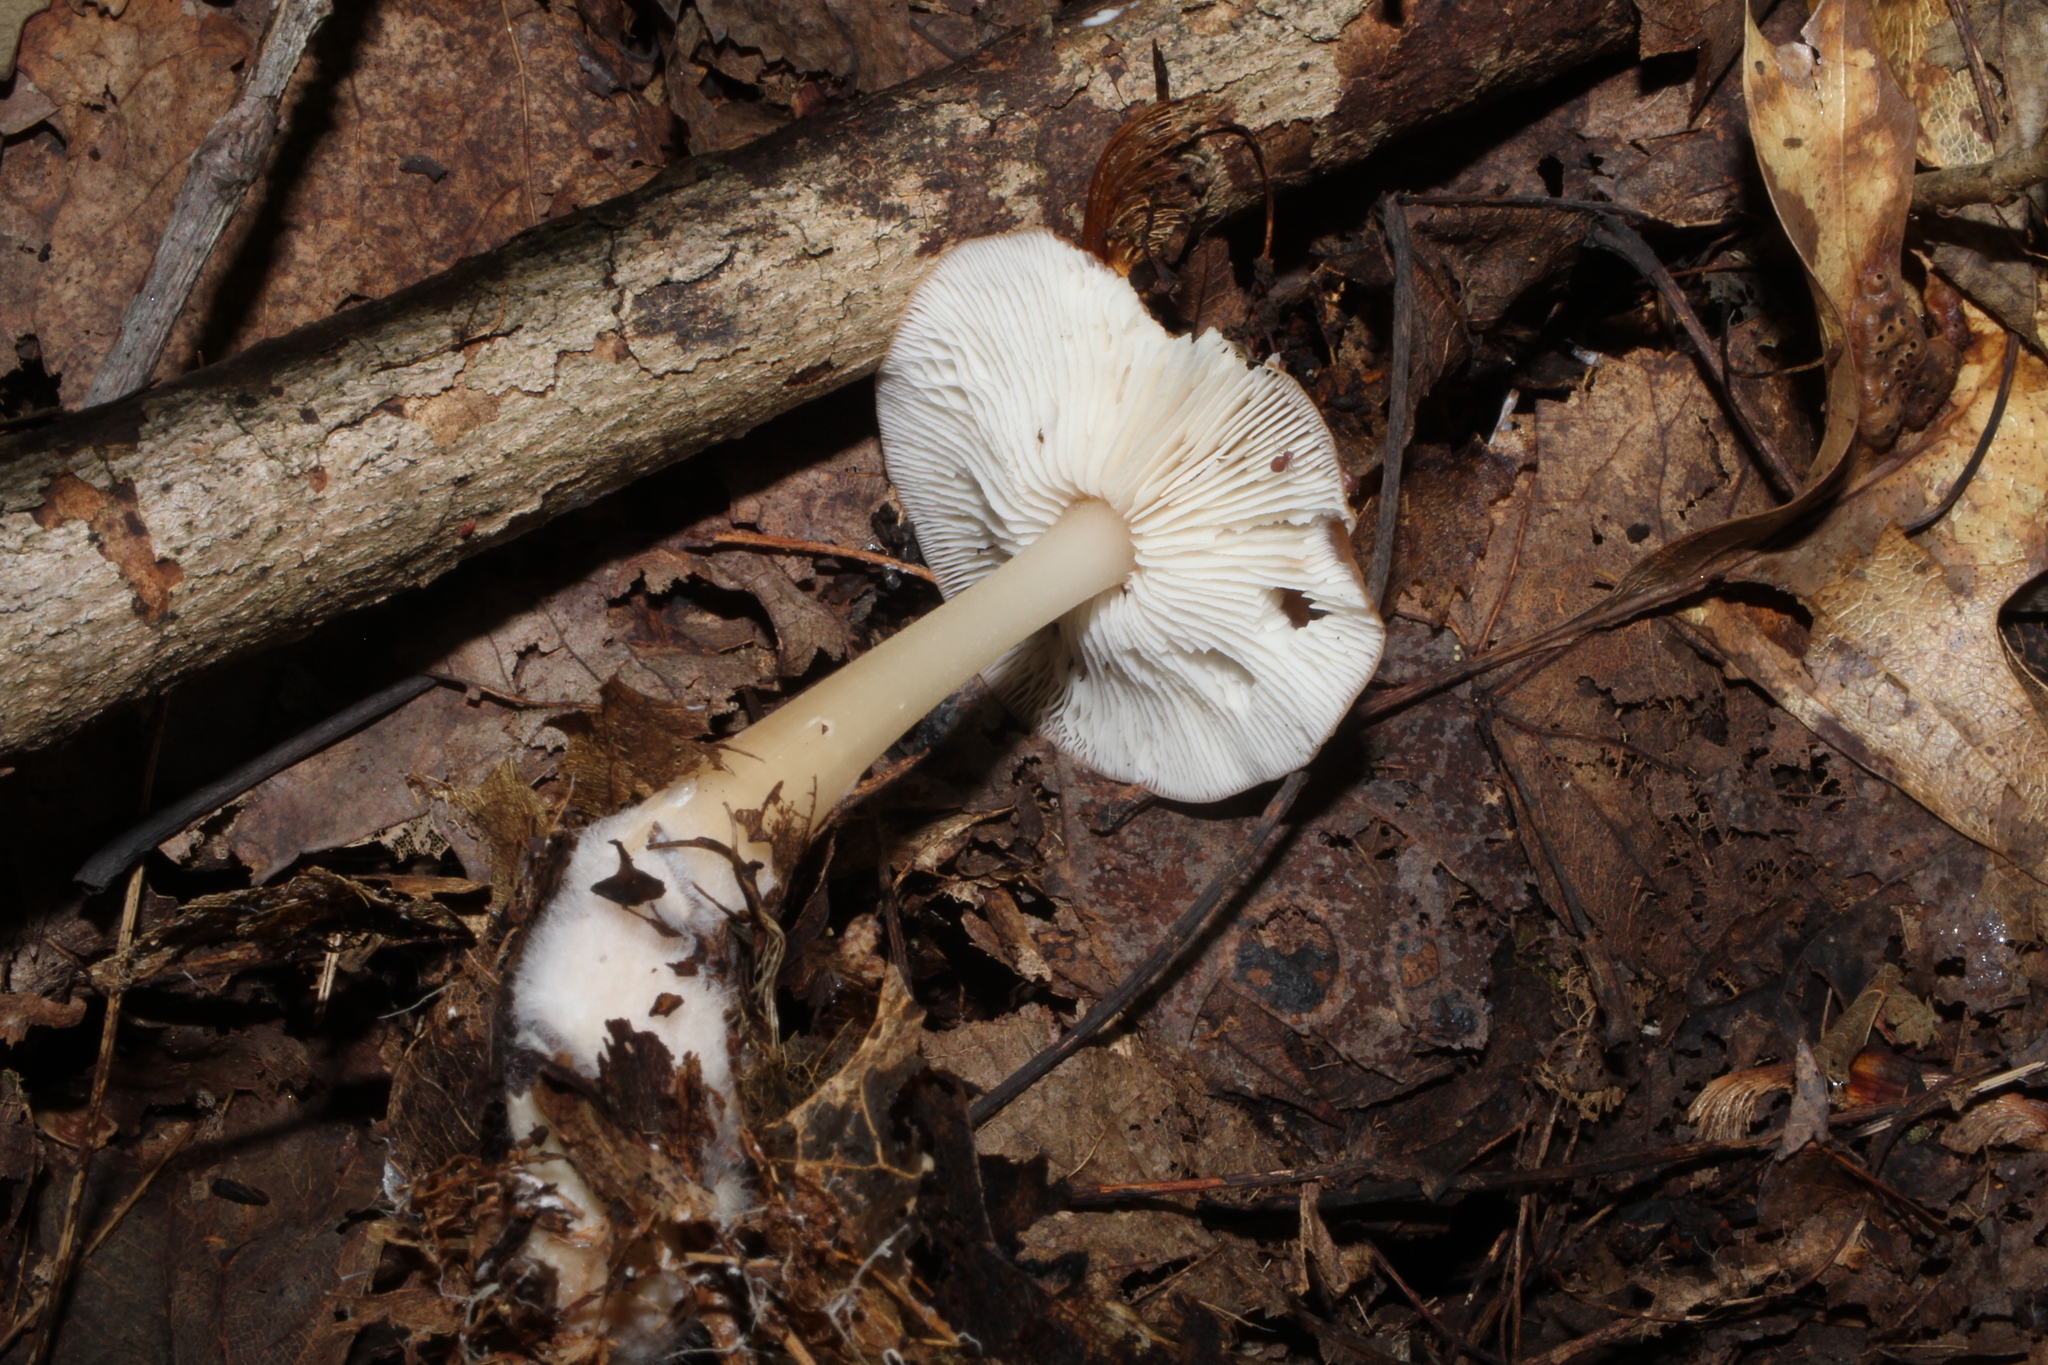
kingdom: Fungi
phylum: Basidiomycota
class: Agaricomycetes
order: Agaricales
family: Omphalotaceae
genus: Gymnopus
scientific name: Gymnopus dryophilus
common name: Penny top
